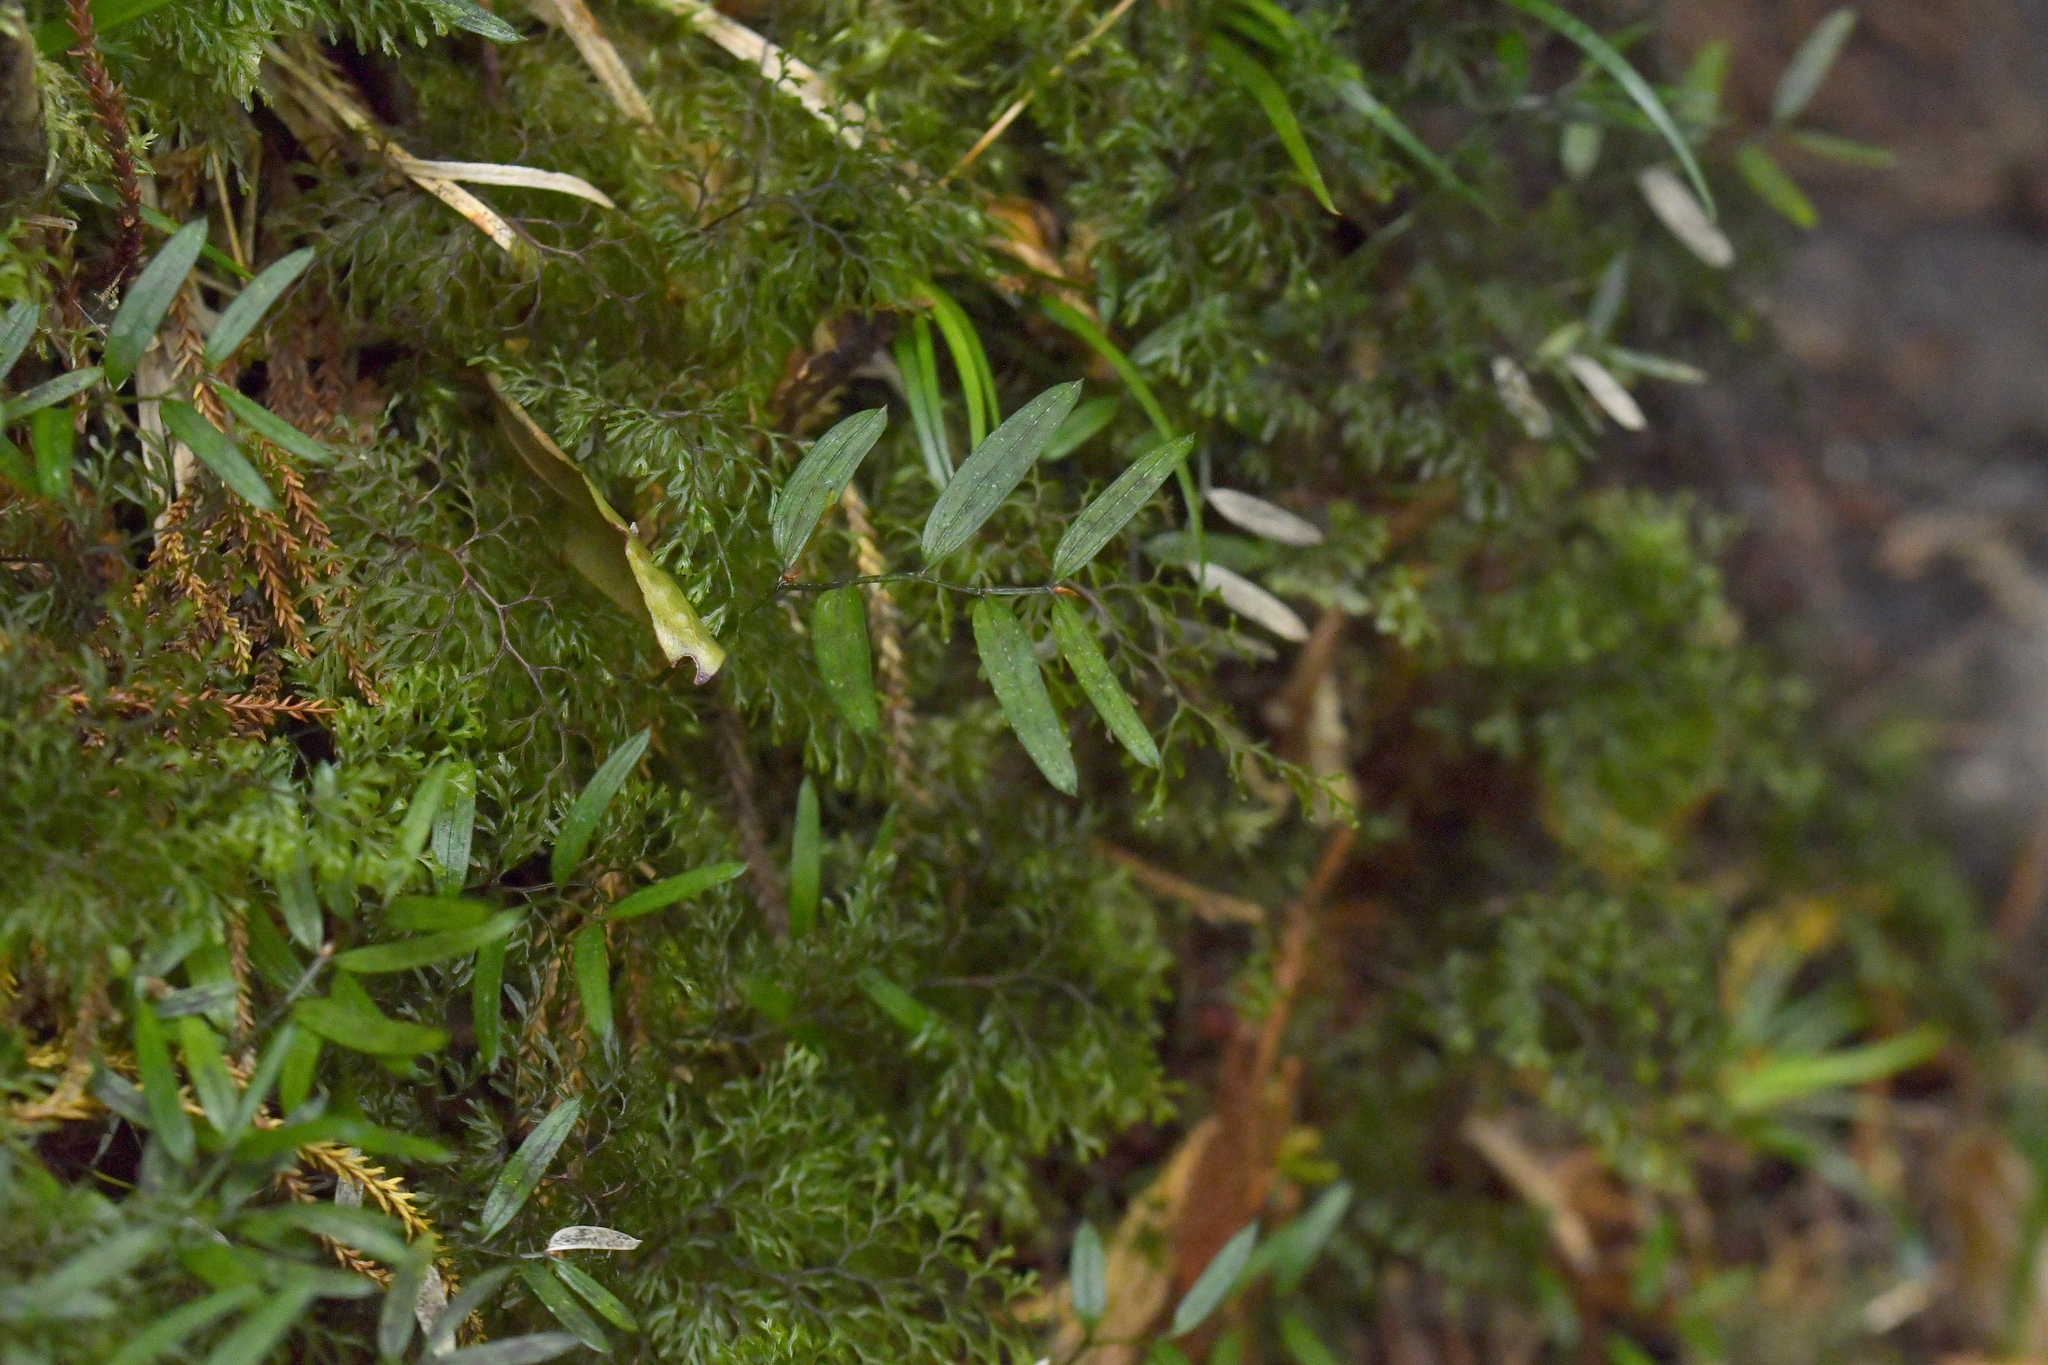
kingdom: Plantae
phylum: Tracheophyta
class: Liliopsida
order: Liliales
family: Alstroemeriaceae
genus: Luzuriaga
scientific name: Luzuriaga parviflora
